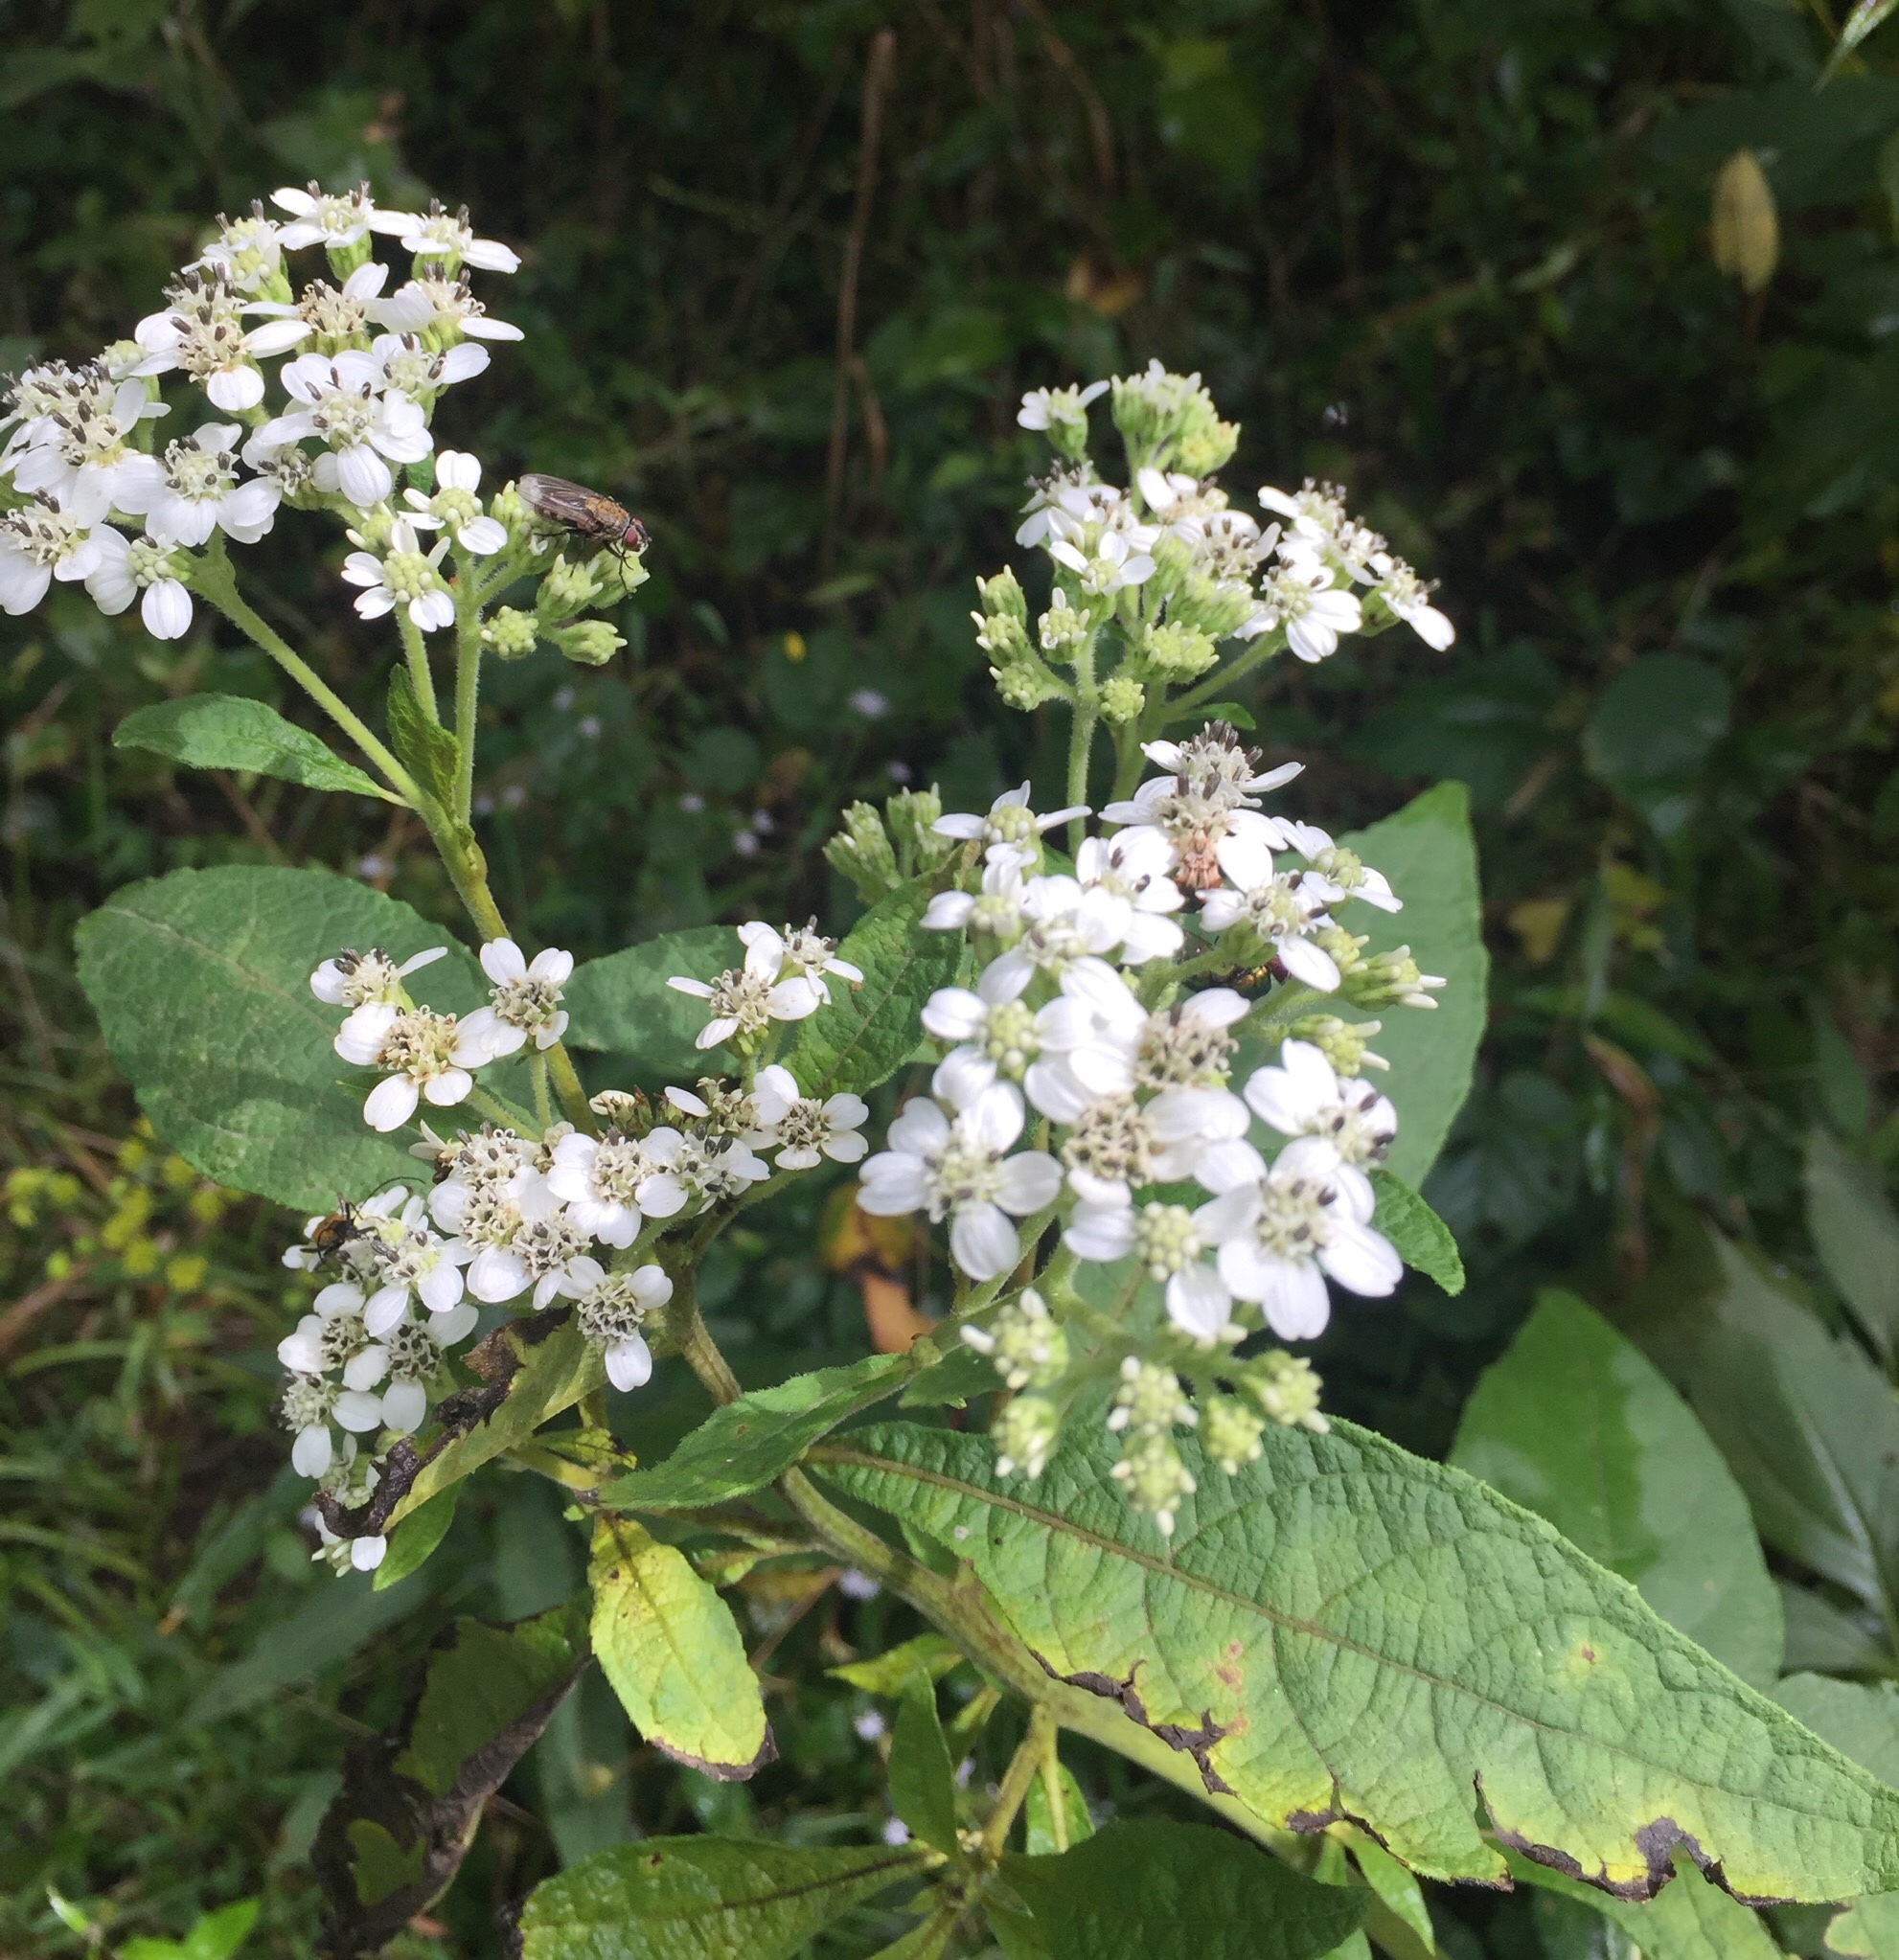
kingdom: Plantae
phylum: Tracheophyta
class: Magnoliopsida
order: Asterales
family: Asteraceae
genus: Verbesina
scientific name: Verbesina virginica
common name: Frostweed
